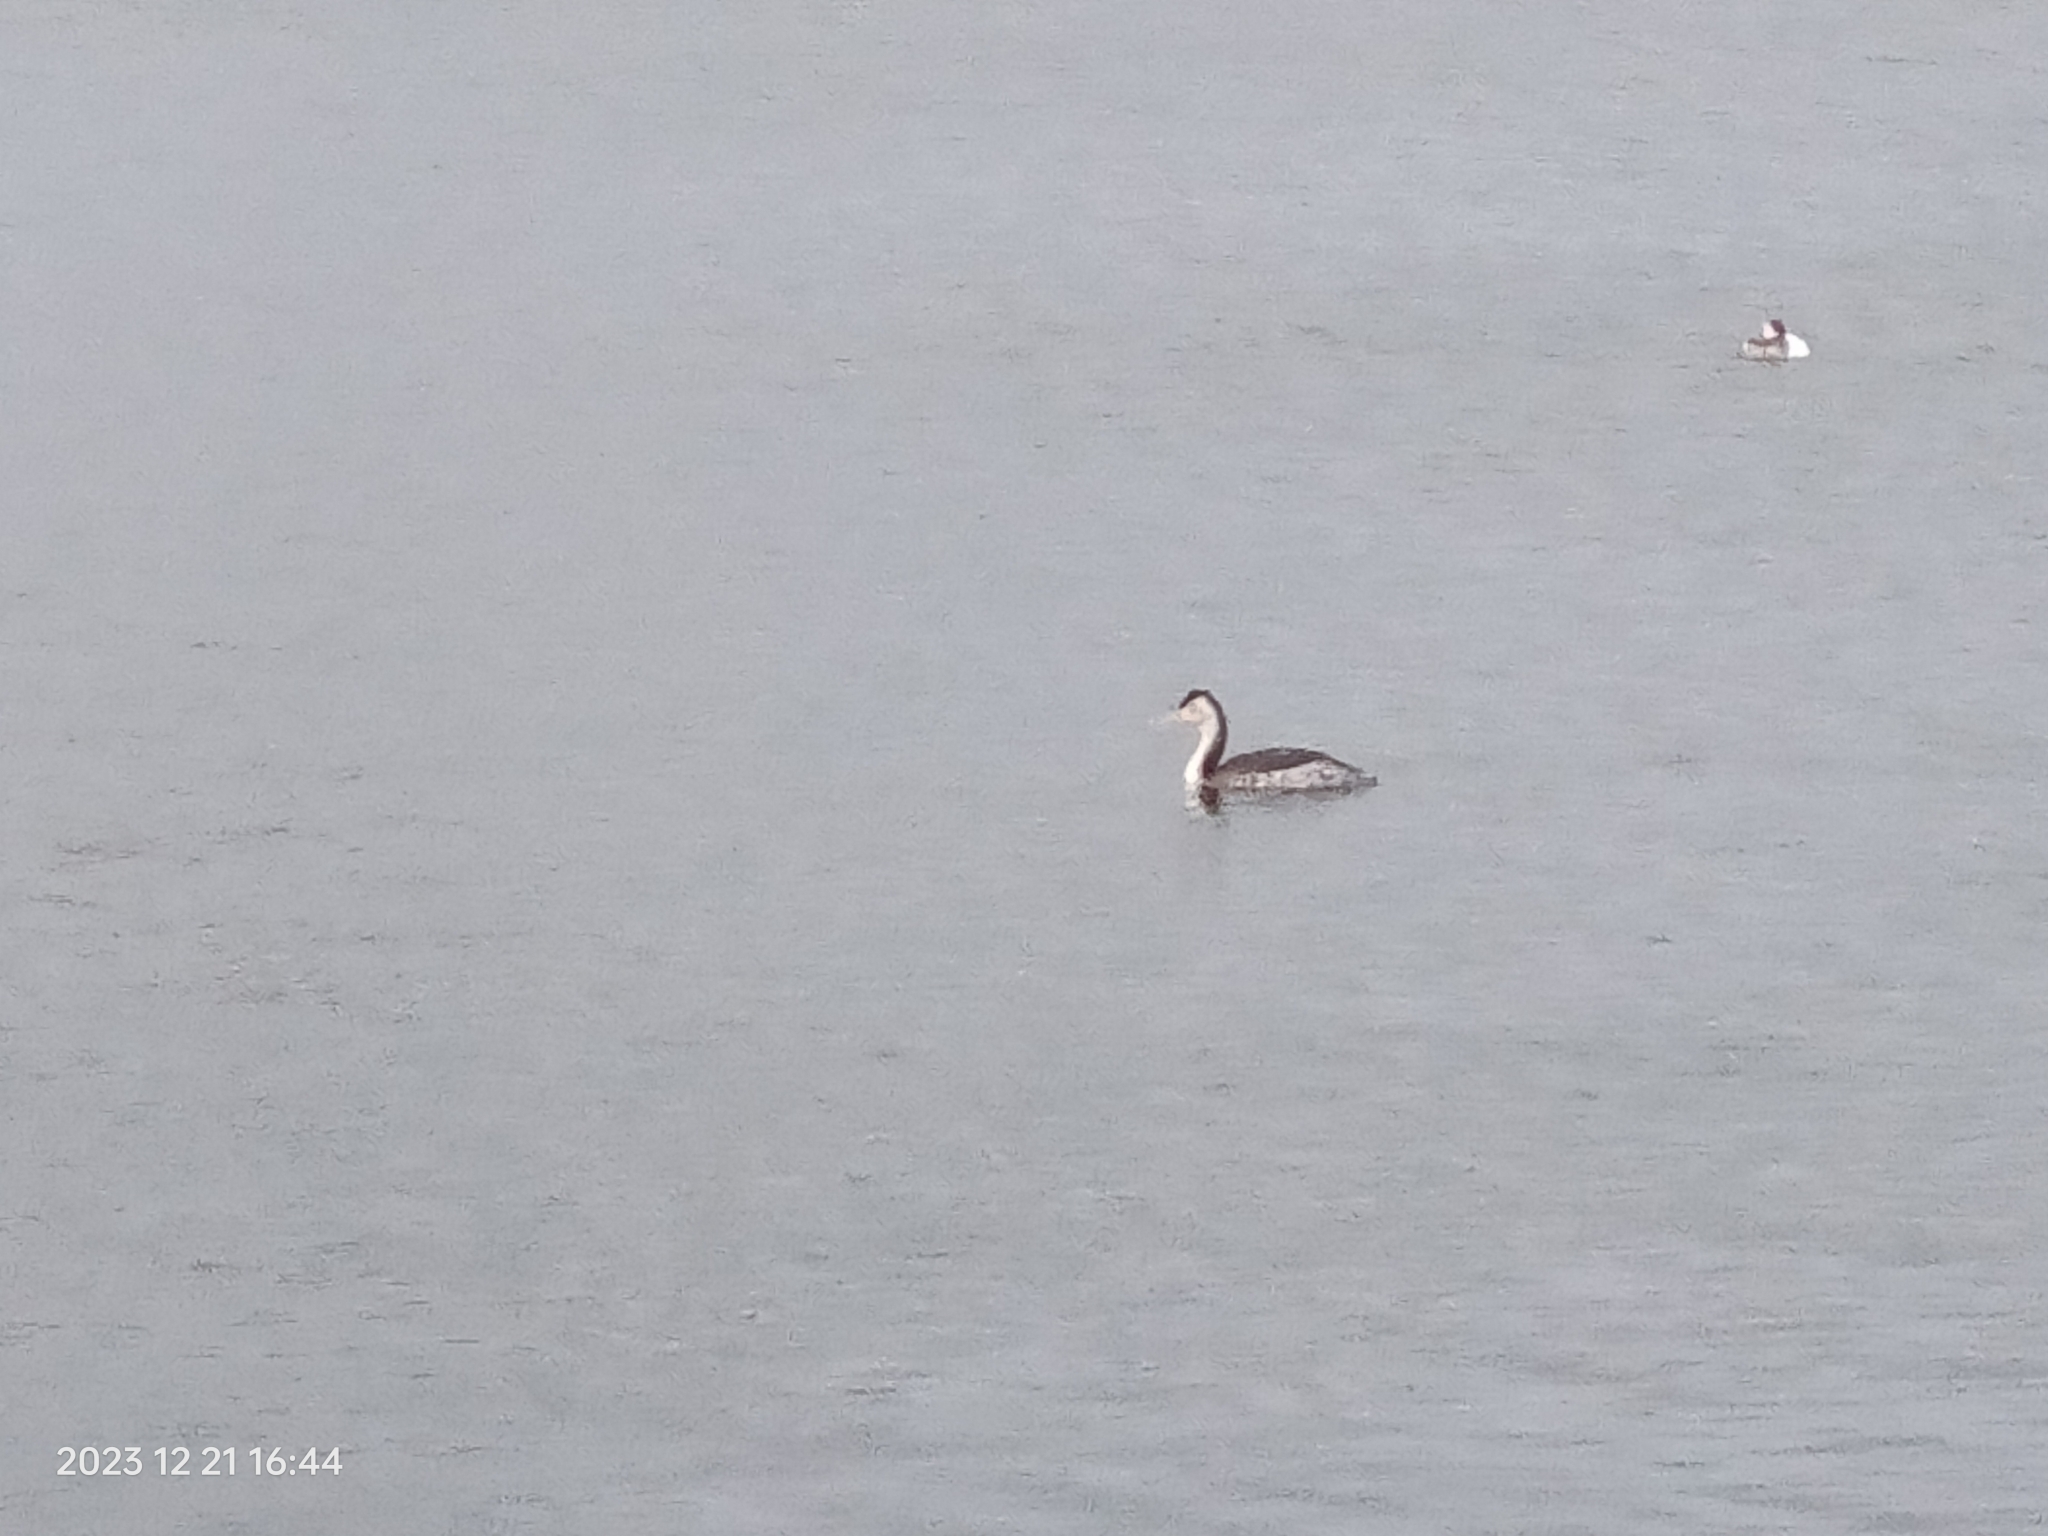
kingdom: Animalia
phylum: Chordata
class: Aves
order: Podicipediformes
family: Podicipedidae
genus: Podiceps
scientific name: Podiceps cristatus
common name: Great crested grebe
